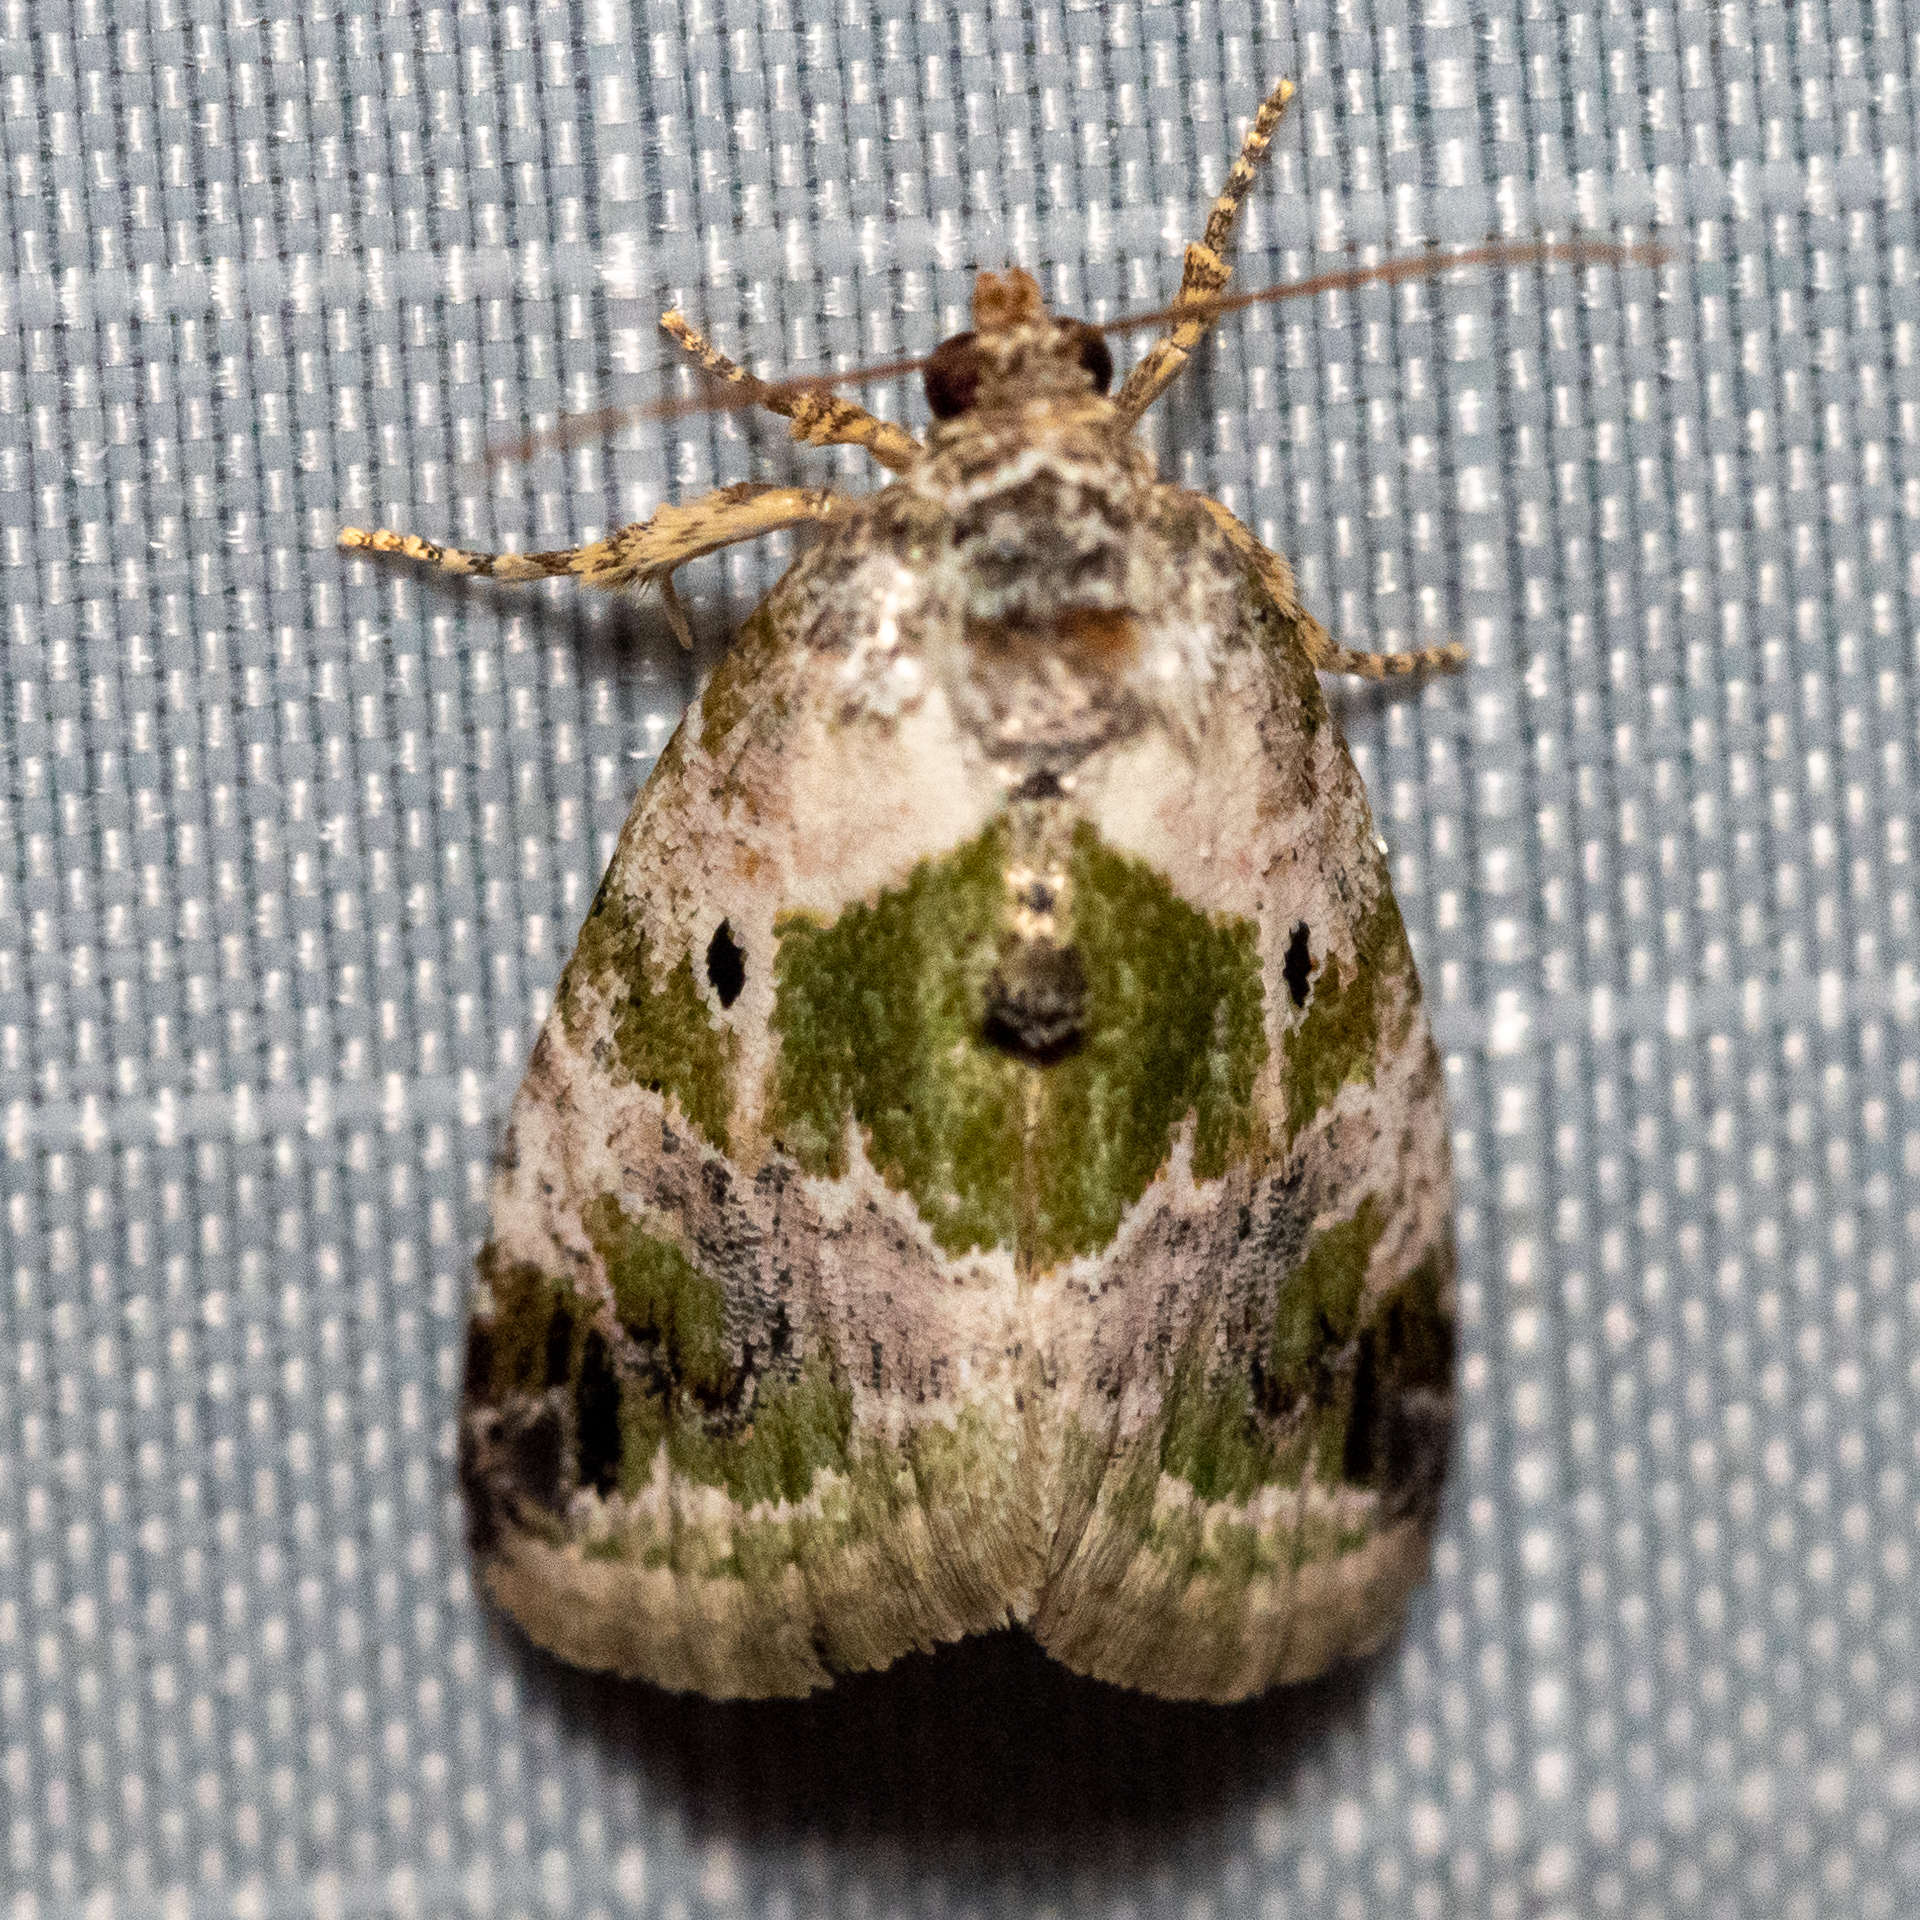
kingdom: Animalia
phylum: Arthropoda
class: Insecta
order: Lepidoptera
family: Noctuidae
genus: Maliattha
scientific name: Maliattha synochitis
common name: Black-dotted glyph
